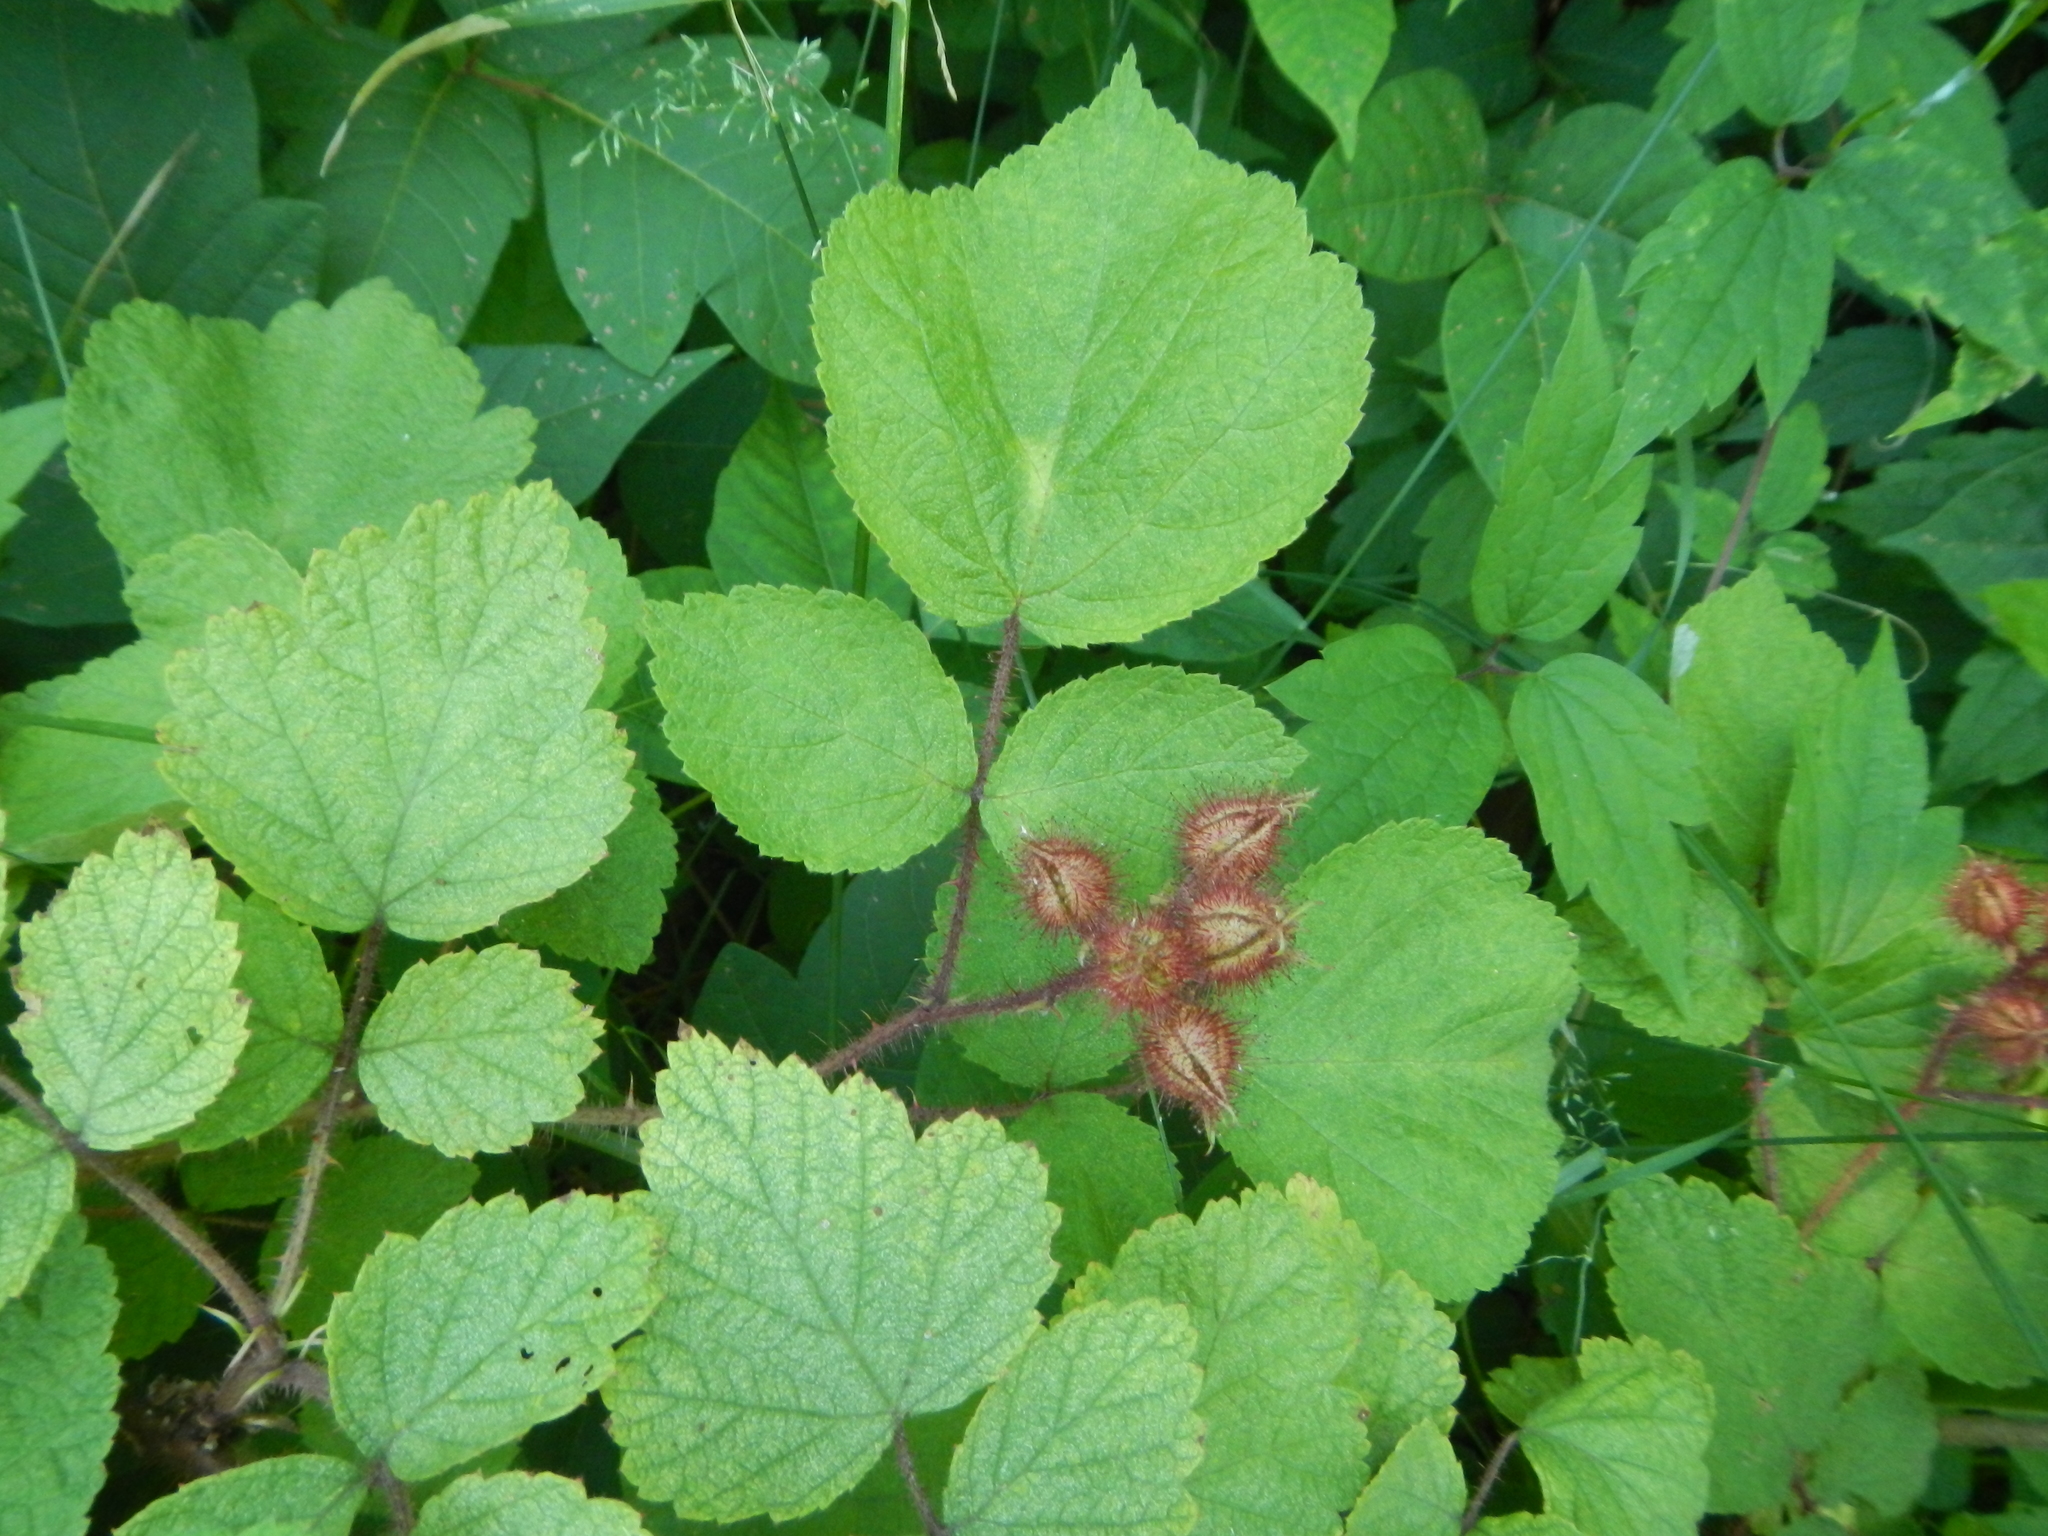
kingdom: Plantae
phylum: Tracheophyta
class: Magnoliopsida
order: Rosales
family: Rosaceae
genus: Rubus
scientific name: Rubus phoenicolasius
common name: Japanese wineberry
